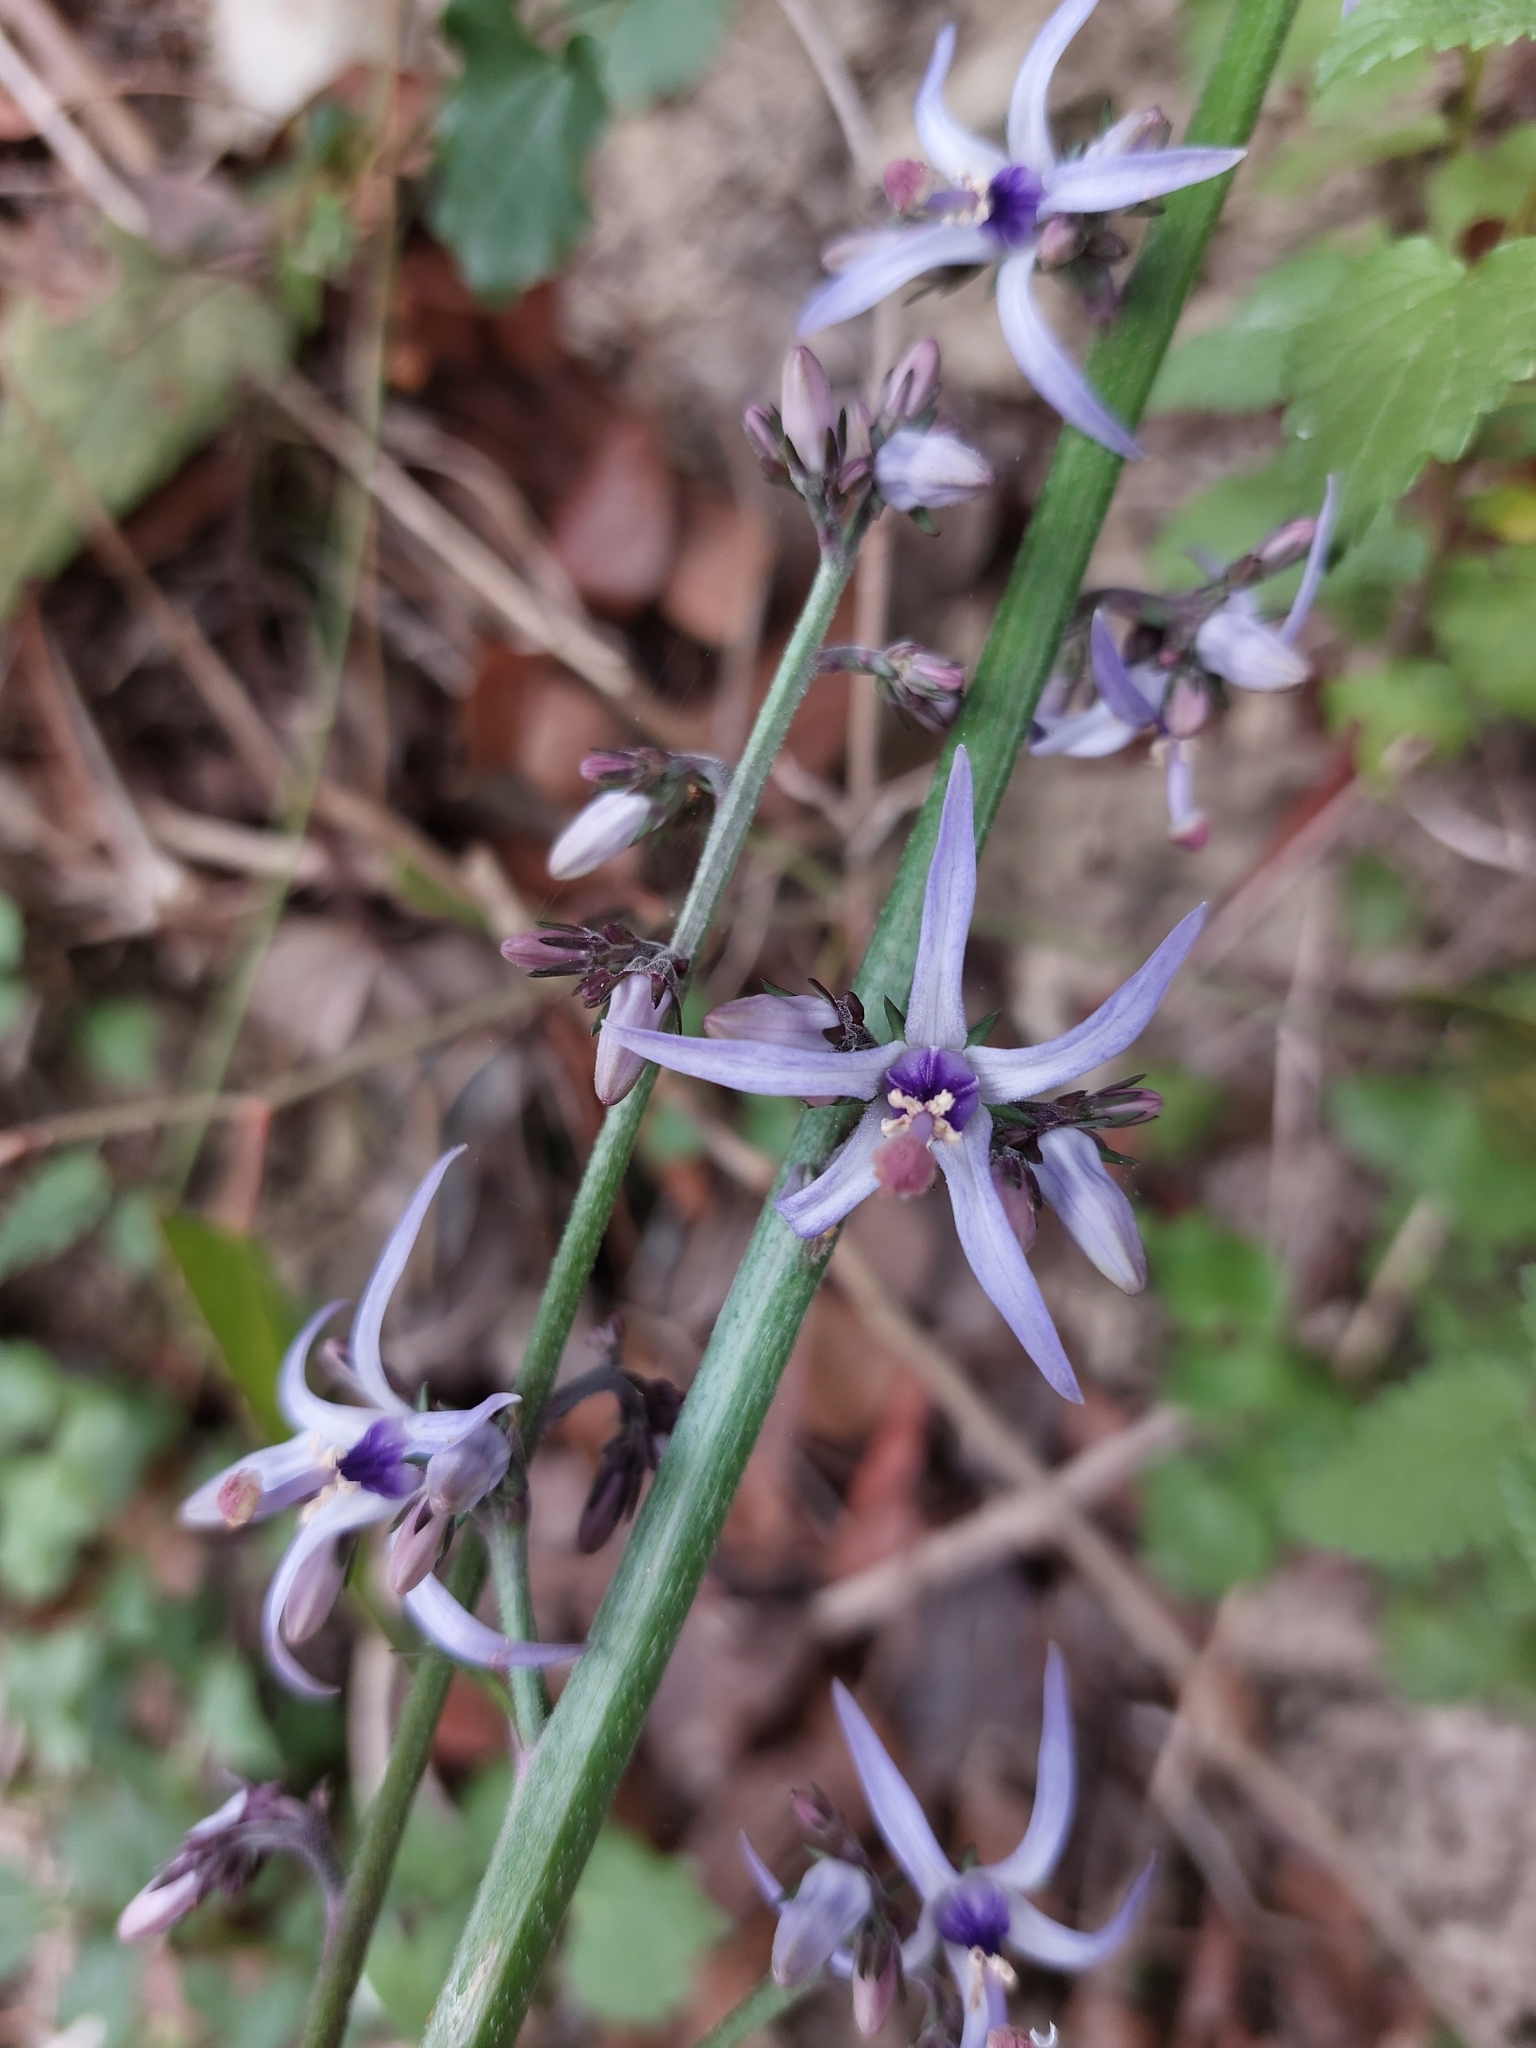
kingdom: Plantae
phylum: Tracheophyta
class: Magnoliopsida
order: Asterales
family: Campanulaceae
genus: Petromarula
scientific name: Petromarula pinnata
